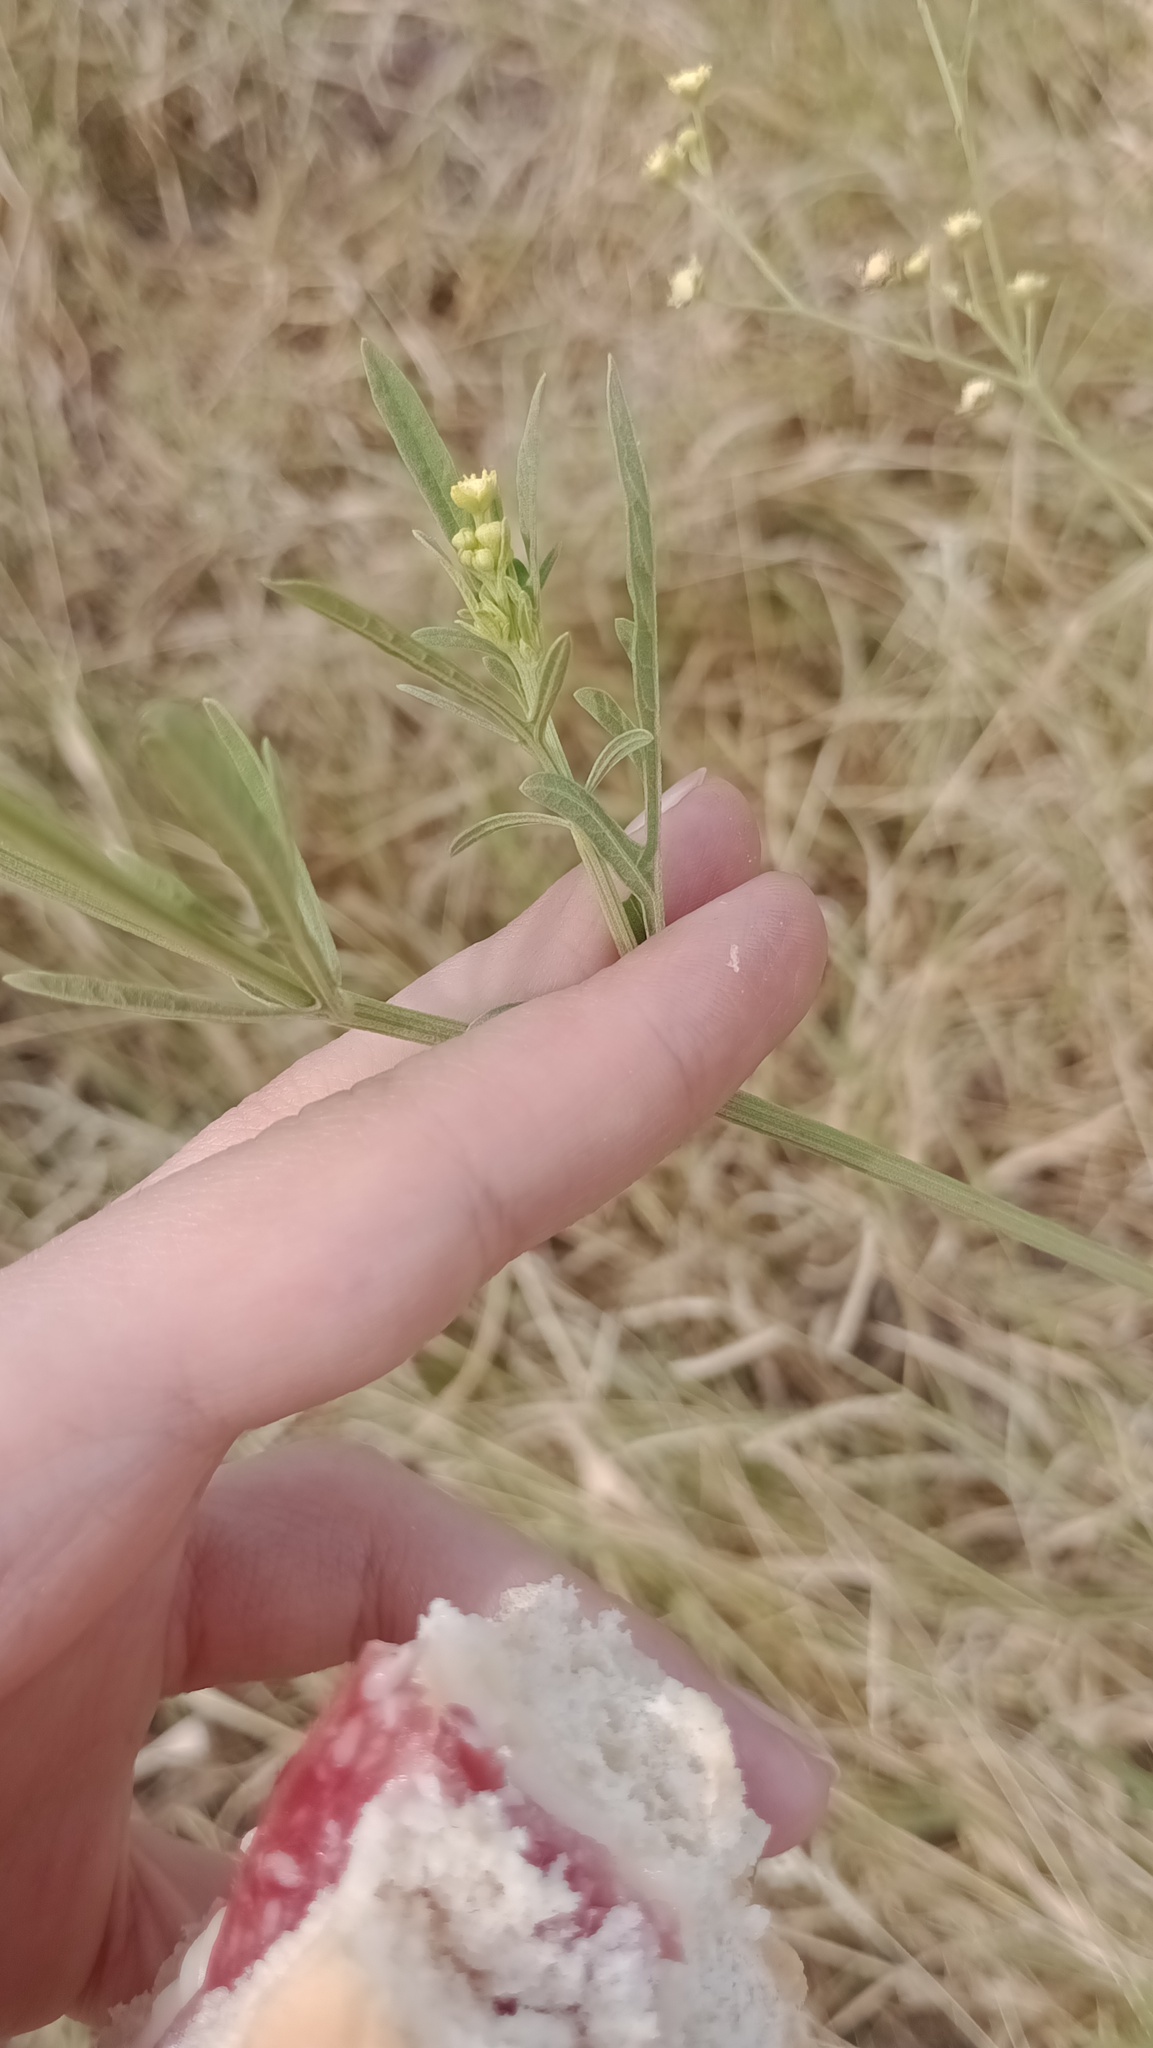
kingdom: Plantae
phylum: Tracheophyta
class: Magnoliopsida
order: Asterales
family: Asteraceae
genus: Parthenium
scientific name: Parthenium hysterophorus
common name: Santa maria feverfew
